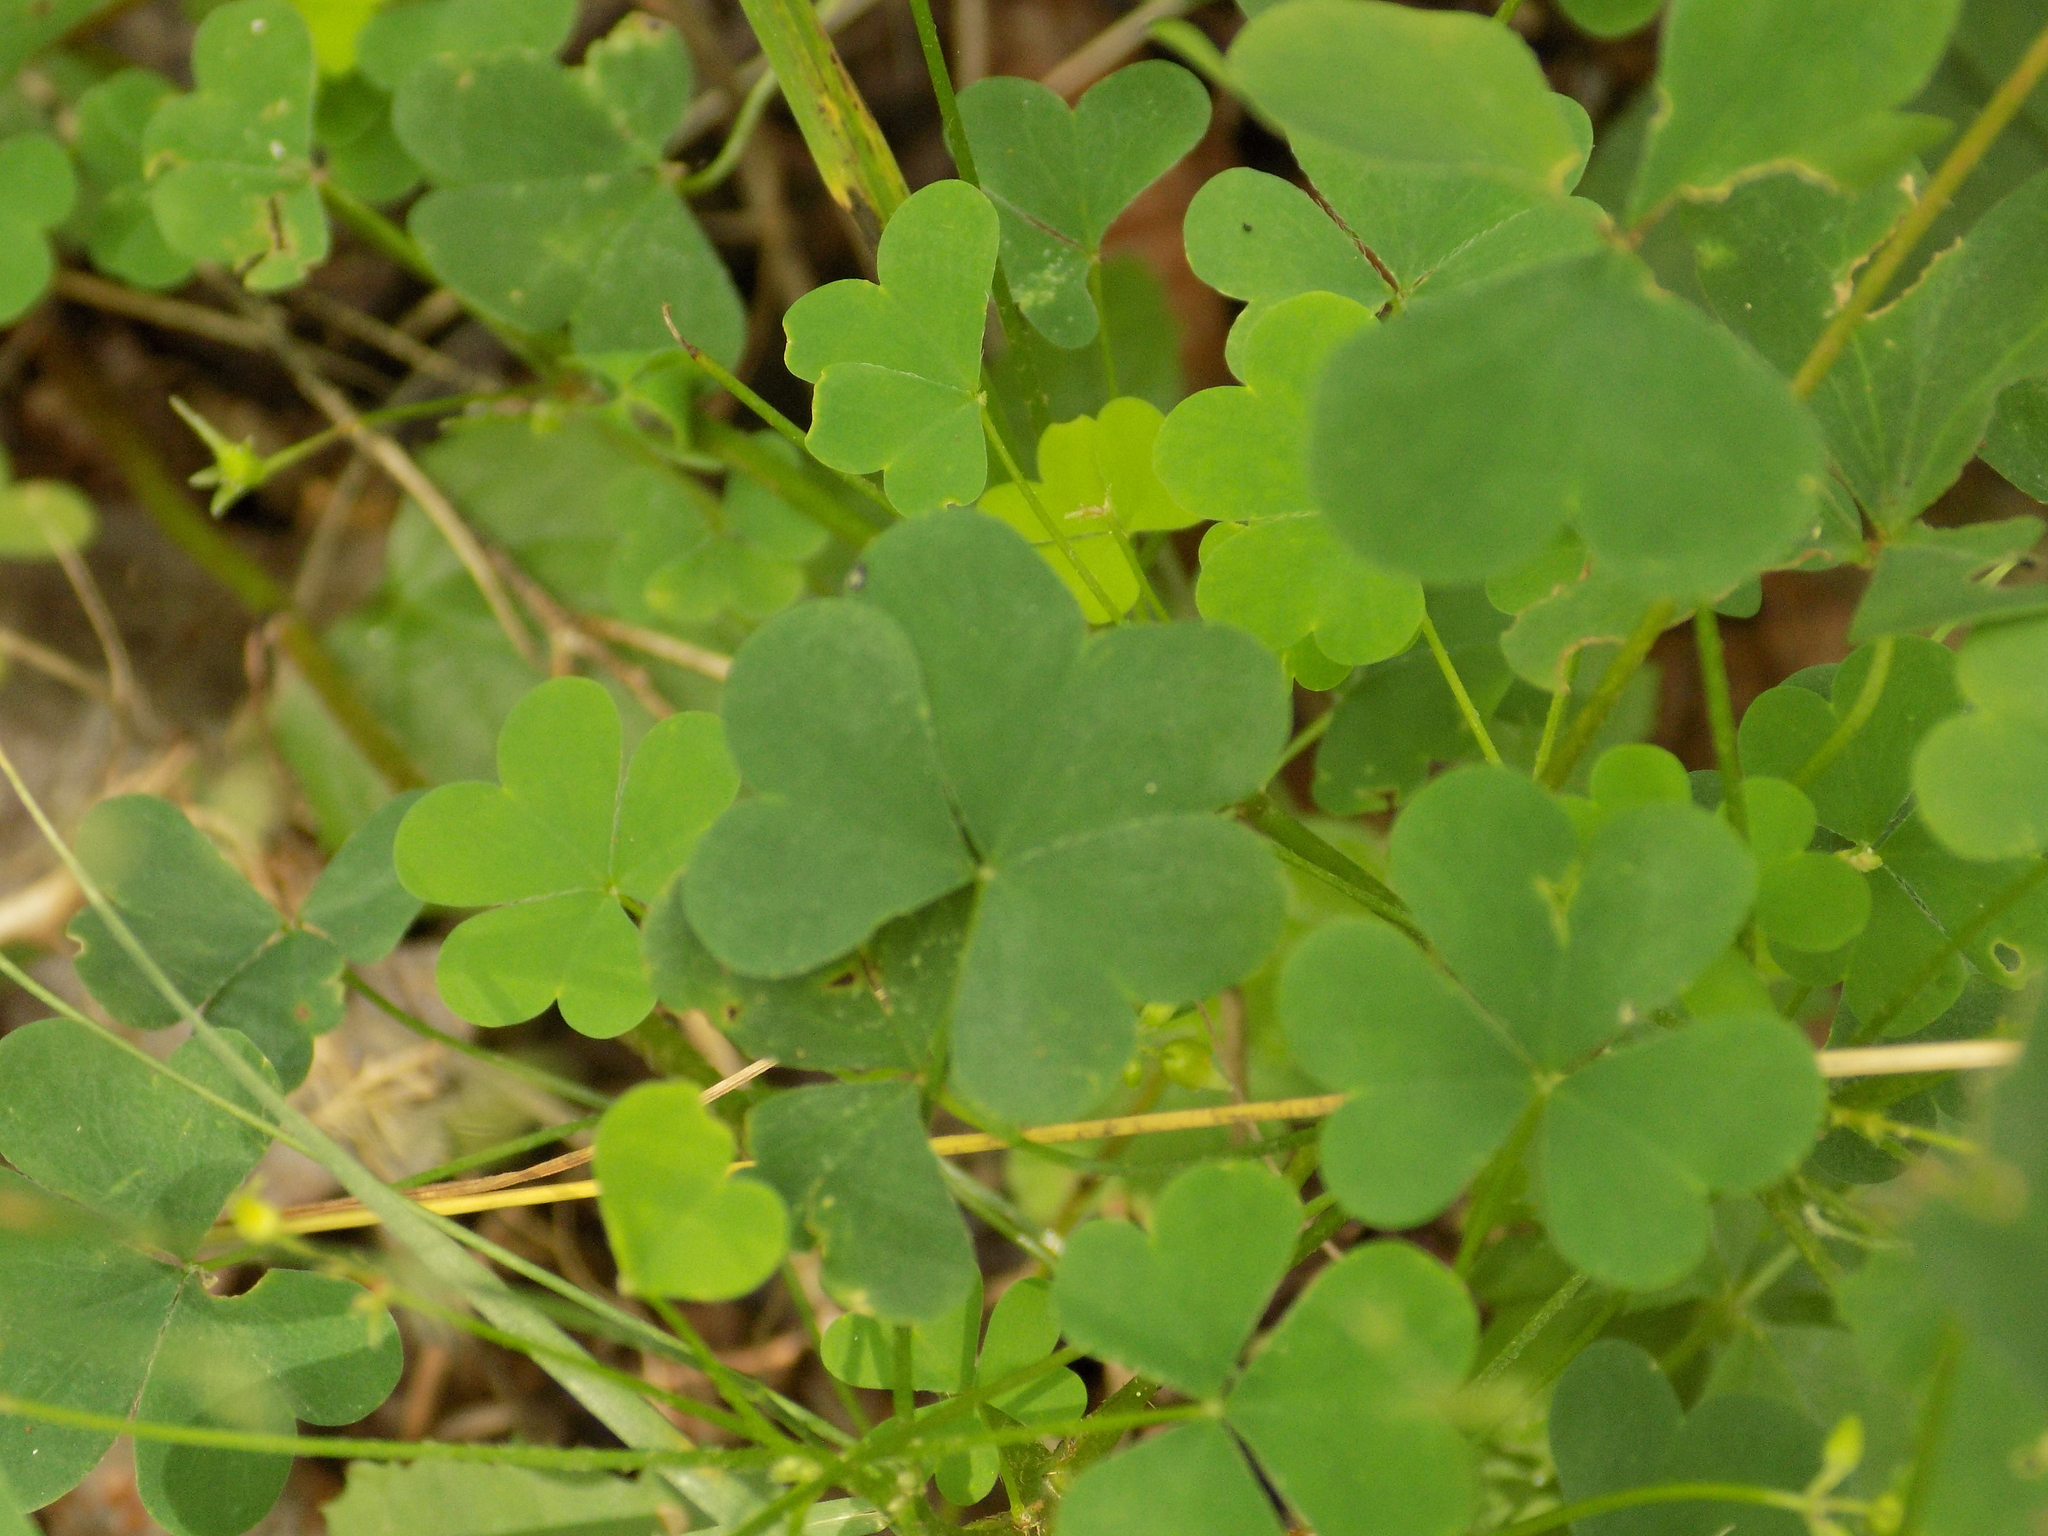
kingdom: Plantae
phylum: Tracheophyta
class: Magnoliopsida
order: Oxalidales
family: Oxalidaceae
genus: Oxalis
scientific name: Oxalis stricta
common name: Upright yellow-sorrel
